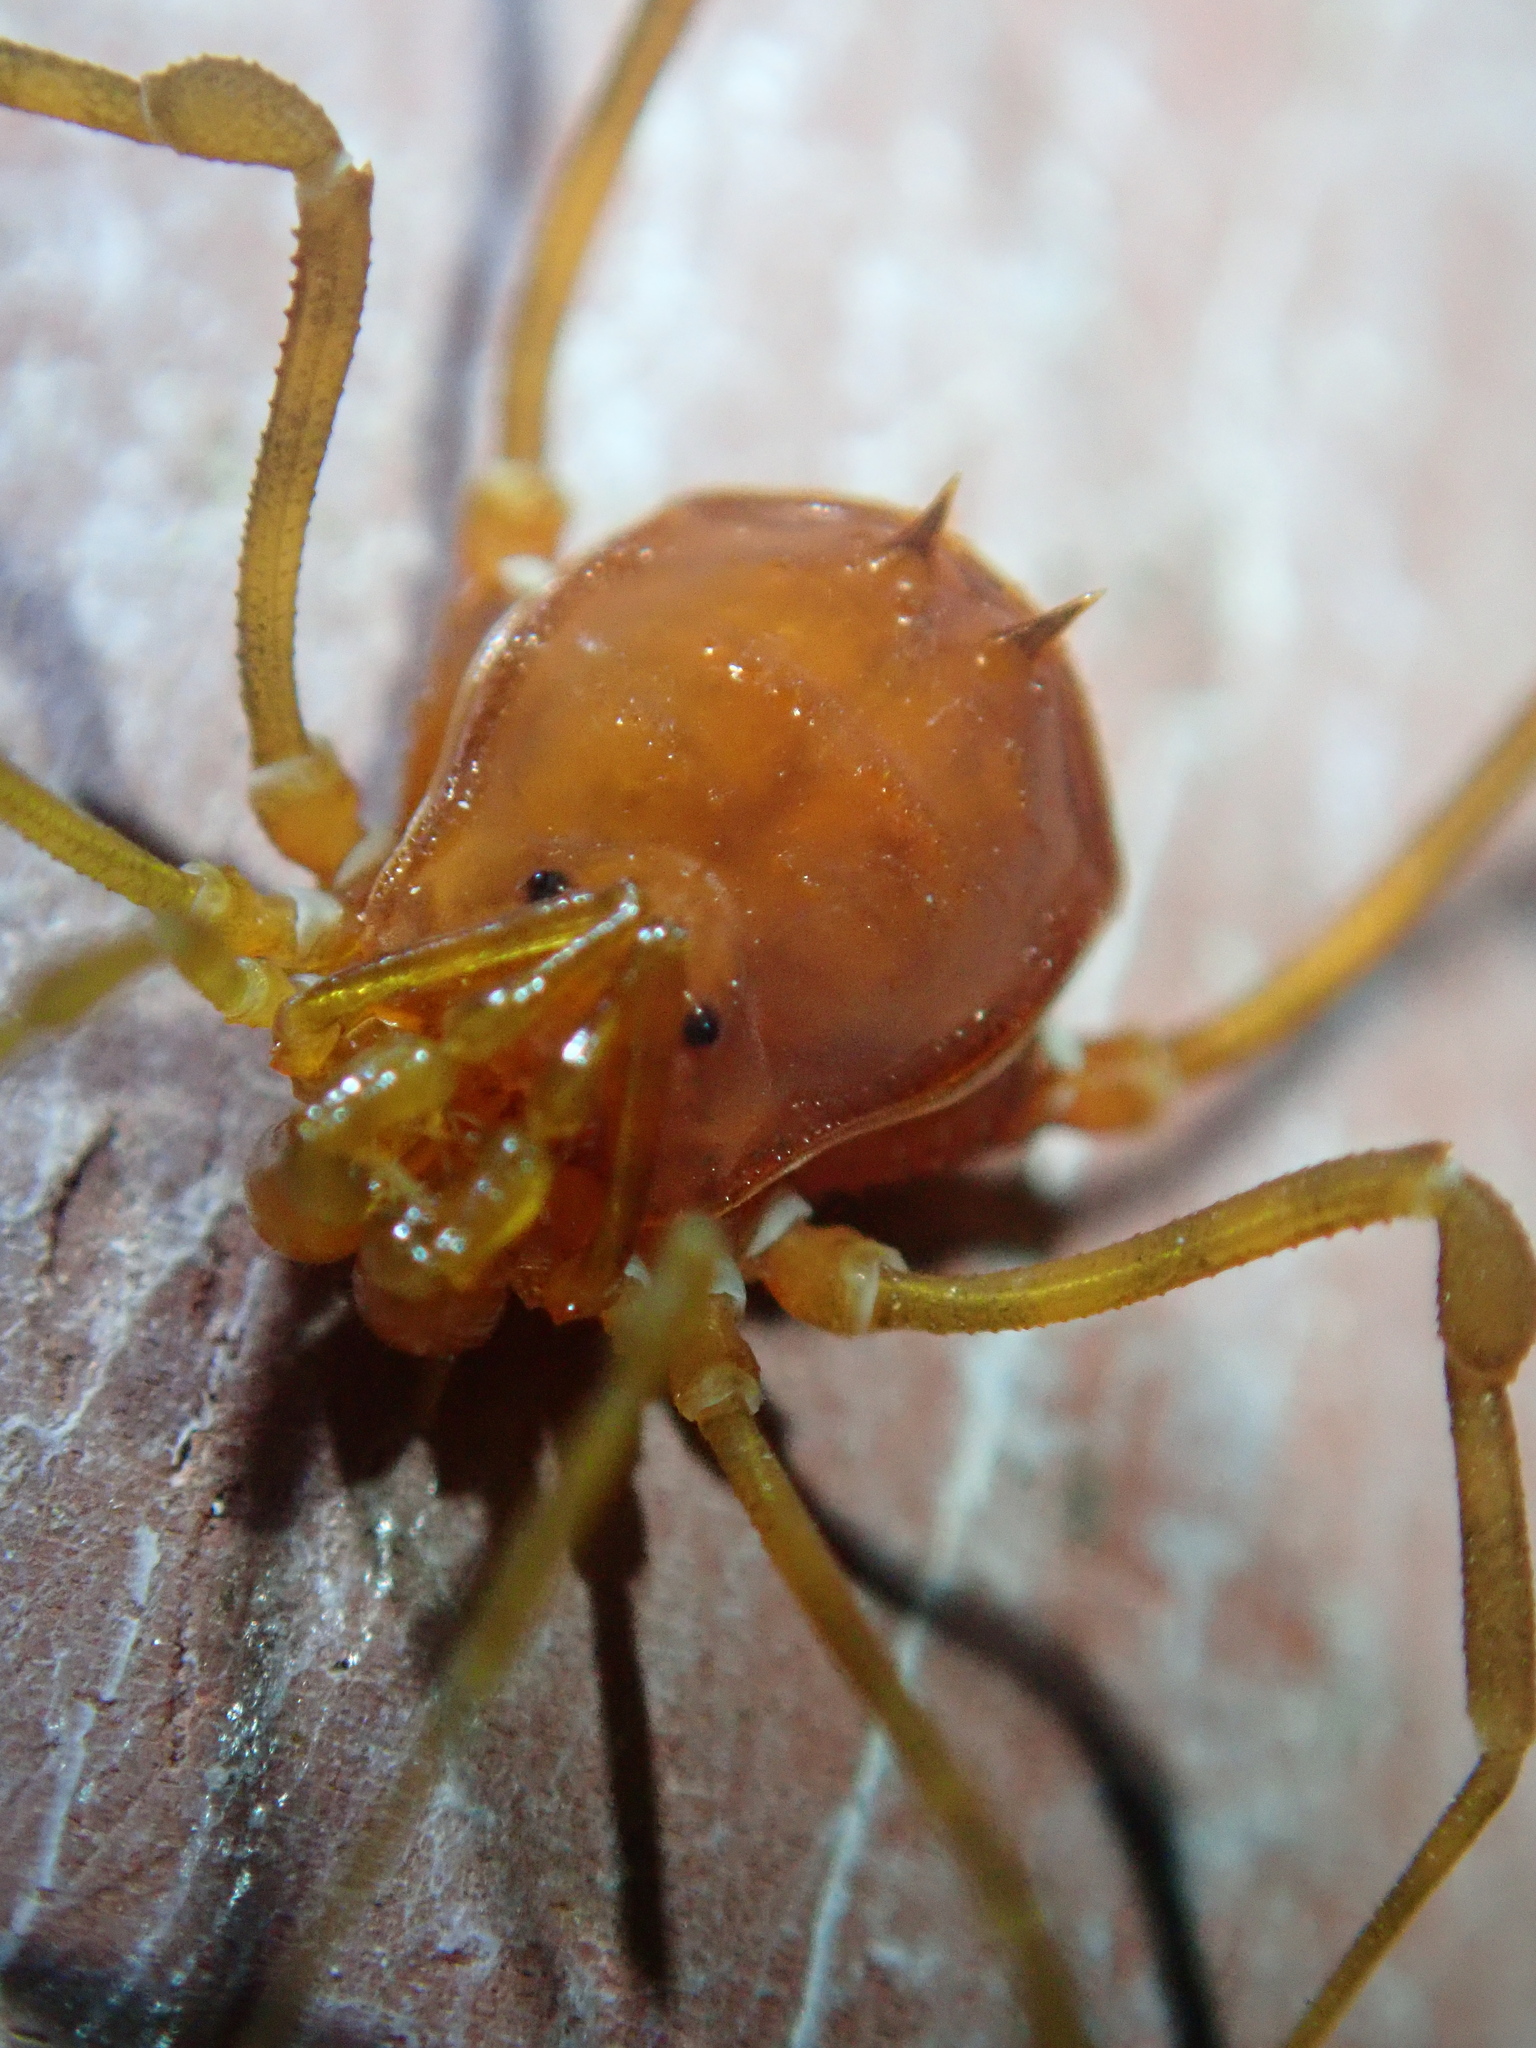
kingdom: Animalia
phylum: Arthropoda
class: Arachnida
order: Opiliones
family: Stygnidae
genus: Stygnus
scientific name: Stygnus polyacanthus
